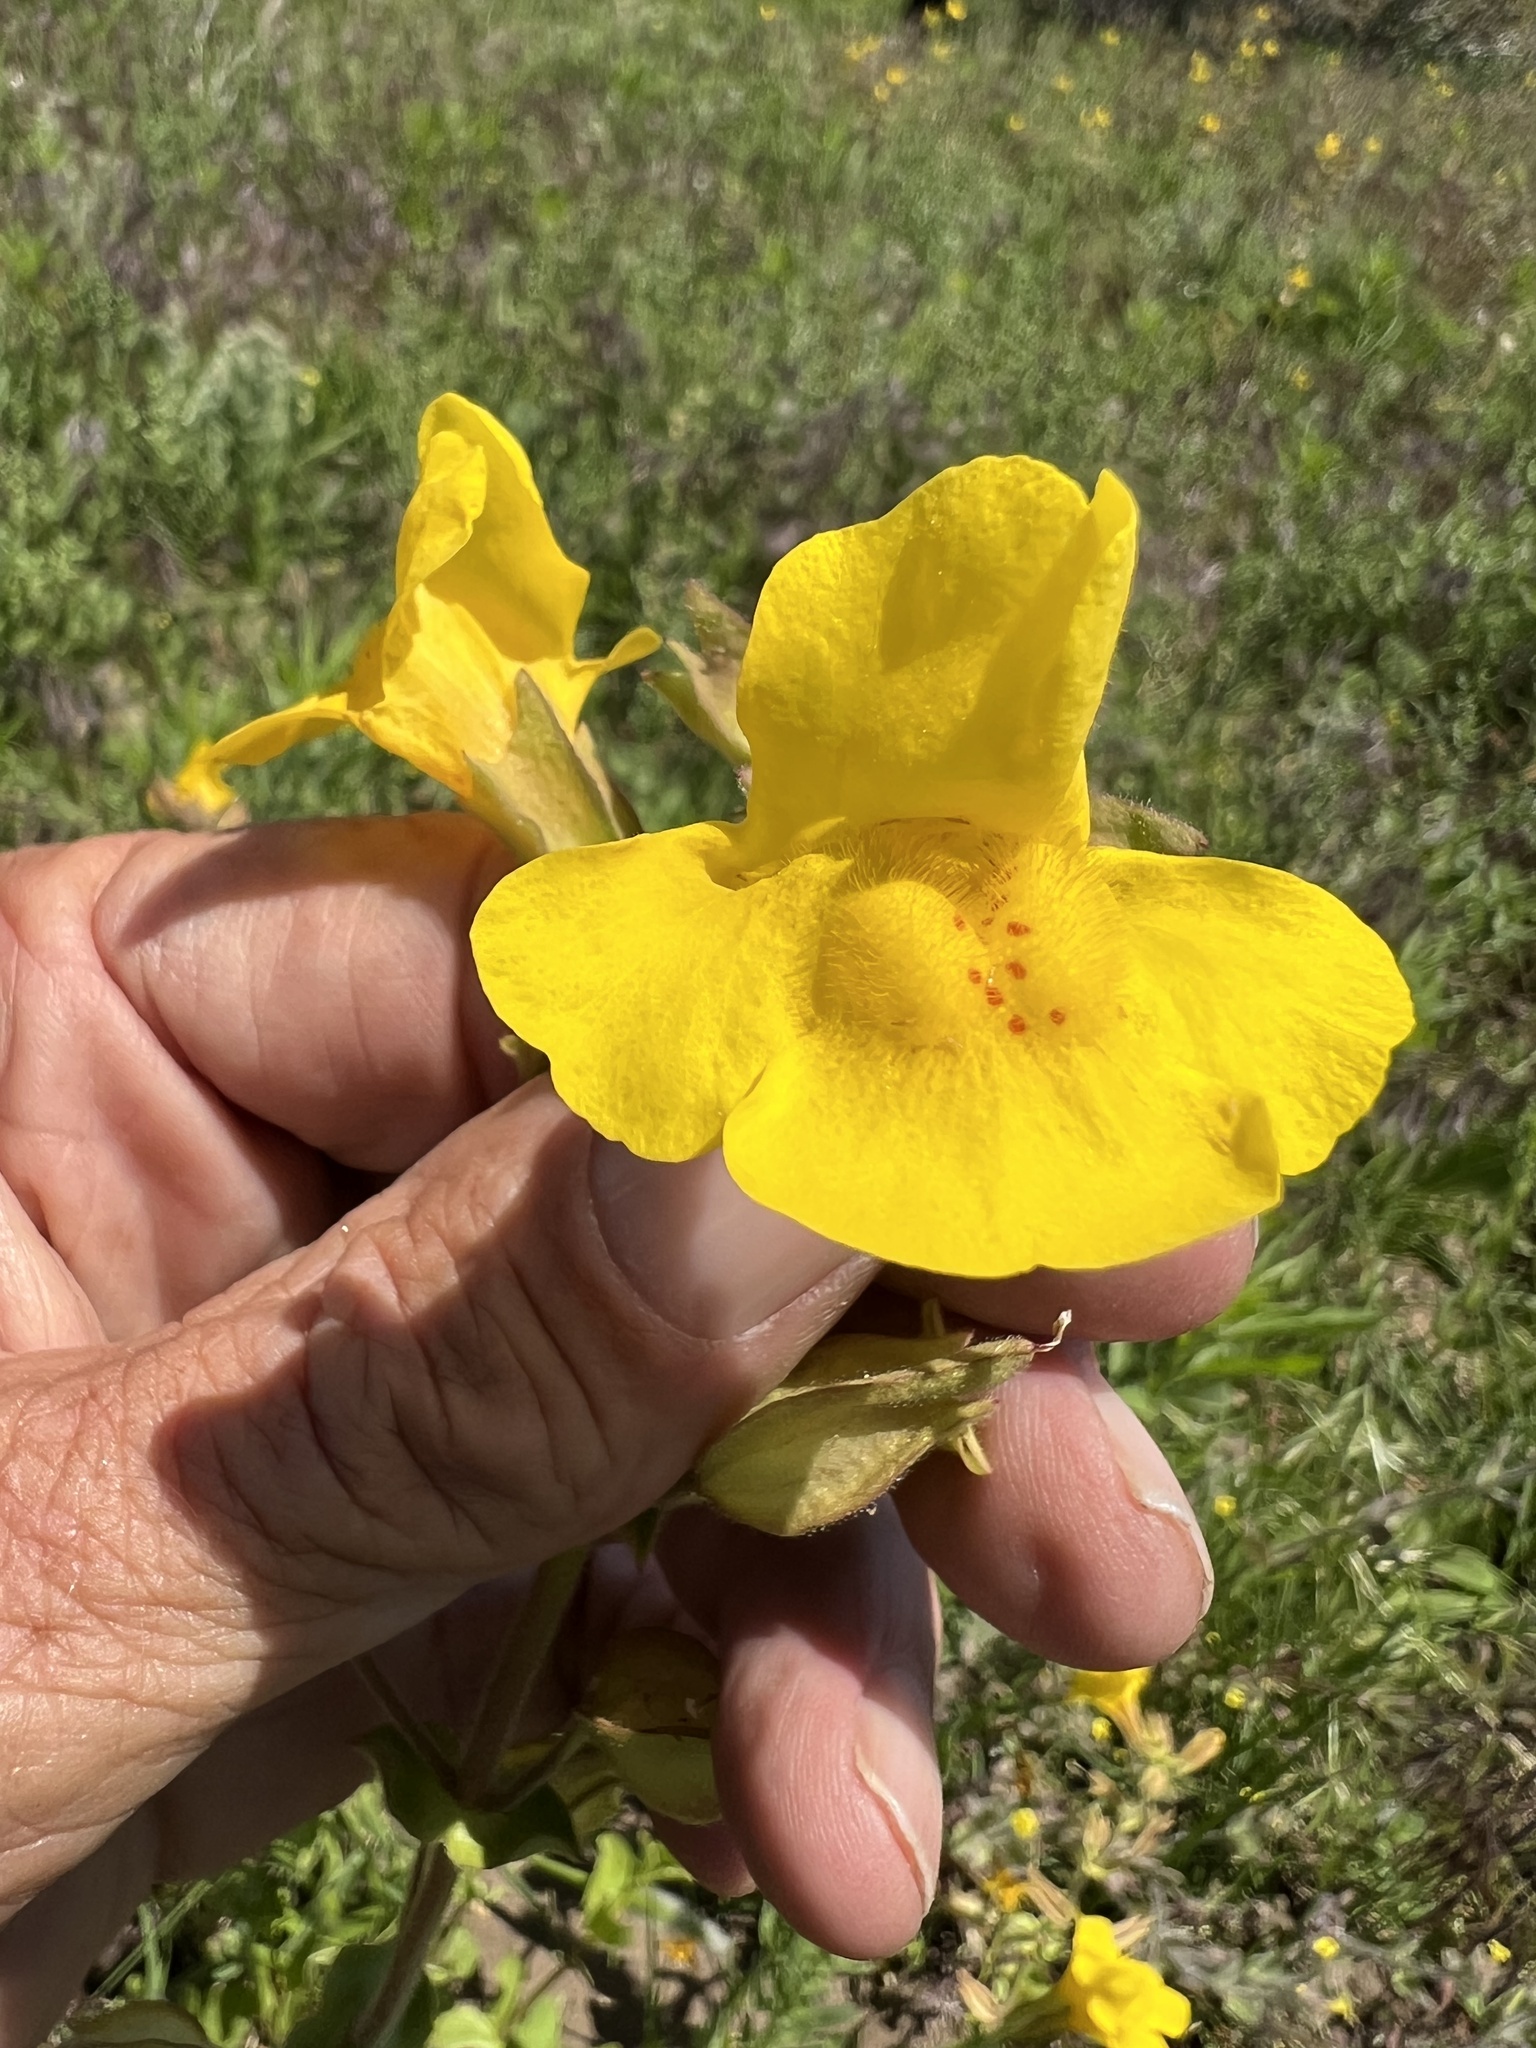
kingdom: Plantae
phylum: Tracheophyta
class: Magnoliopsida
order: Lamiales
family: Phrymaceae
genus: Erythranthe
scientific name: Erythranthe guttata
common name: Monkeyflower
